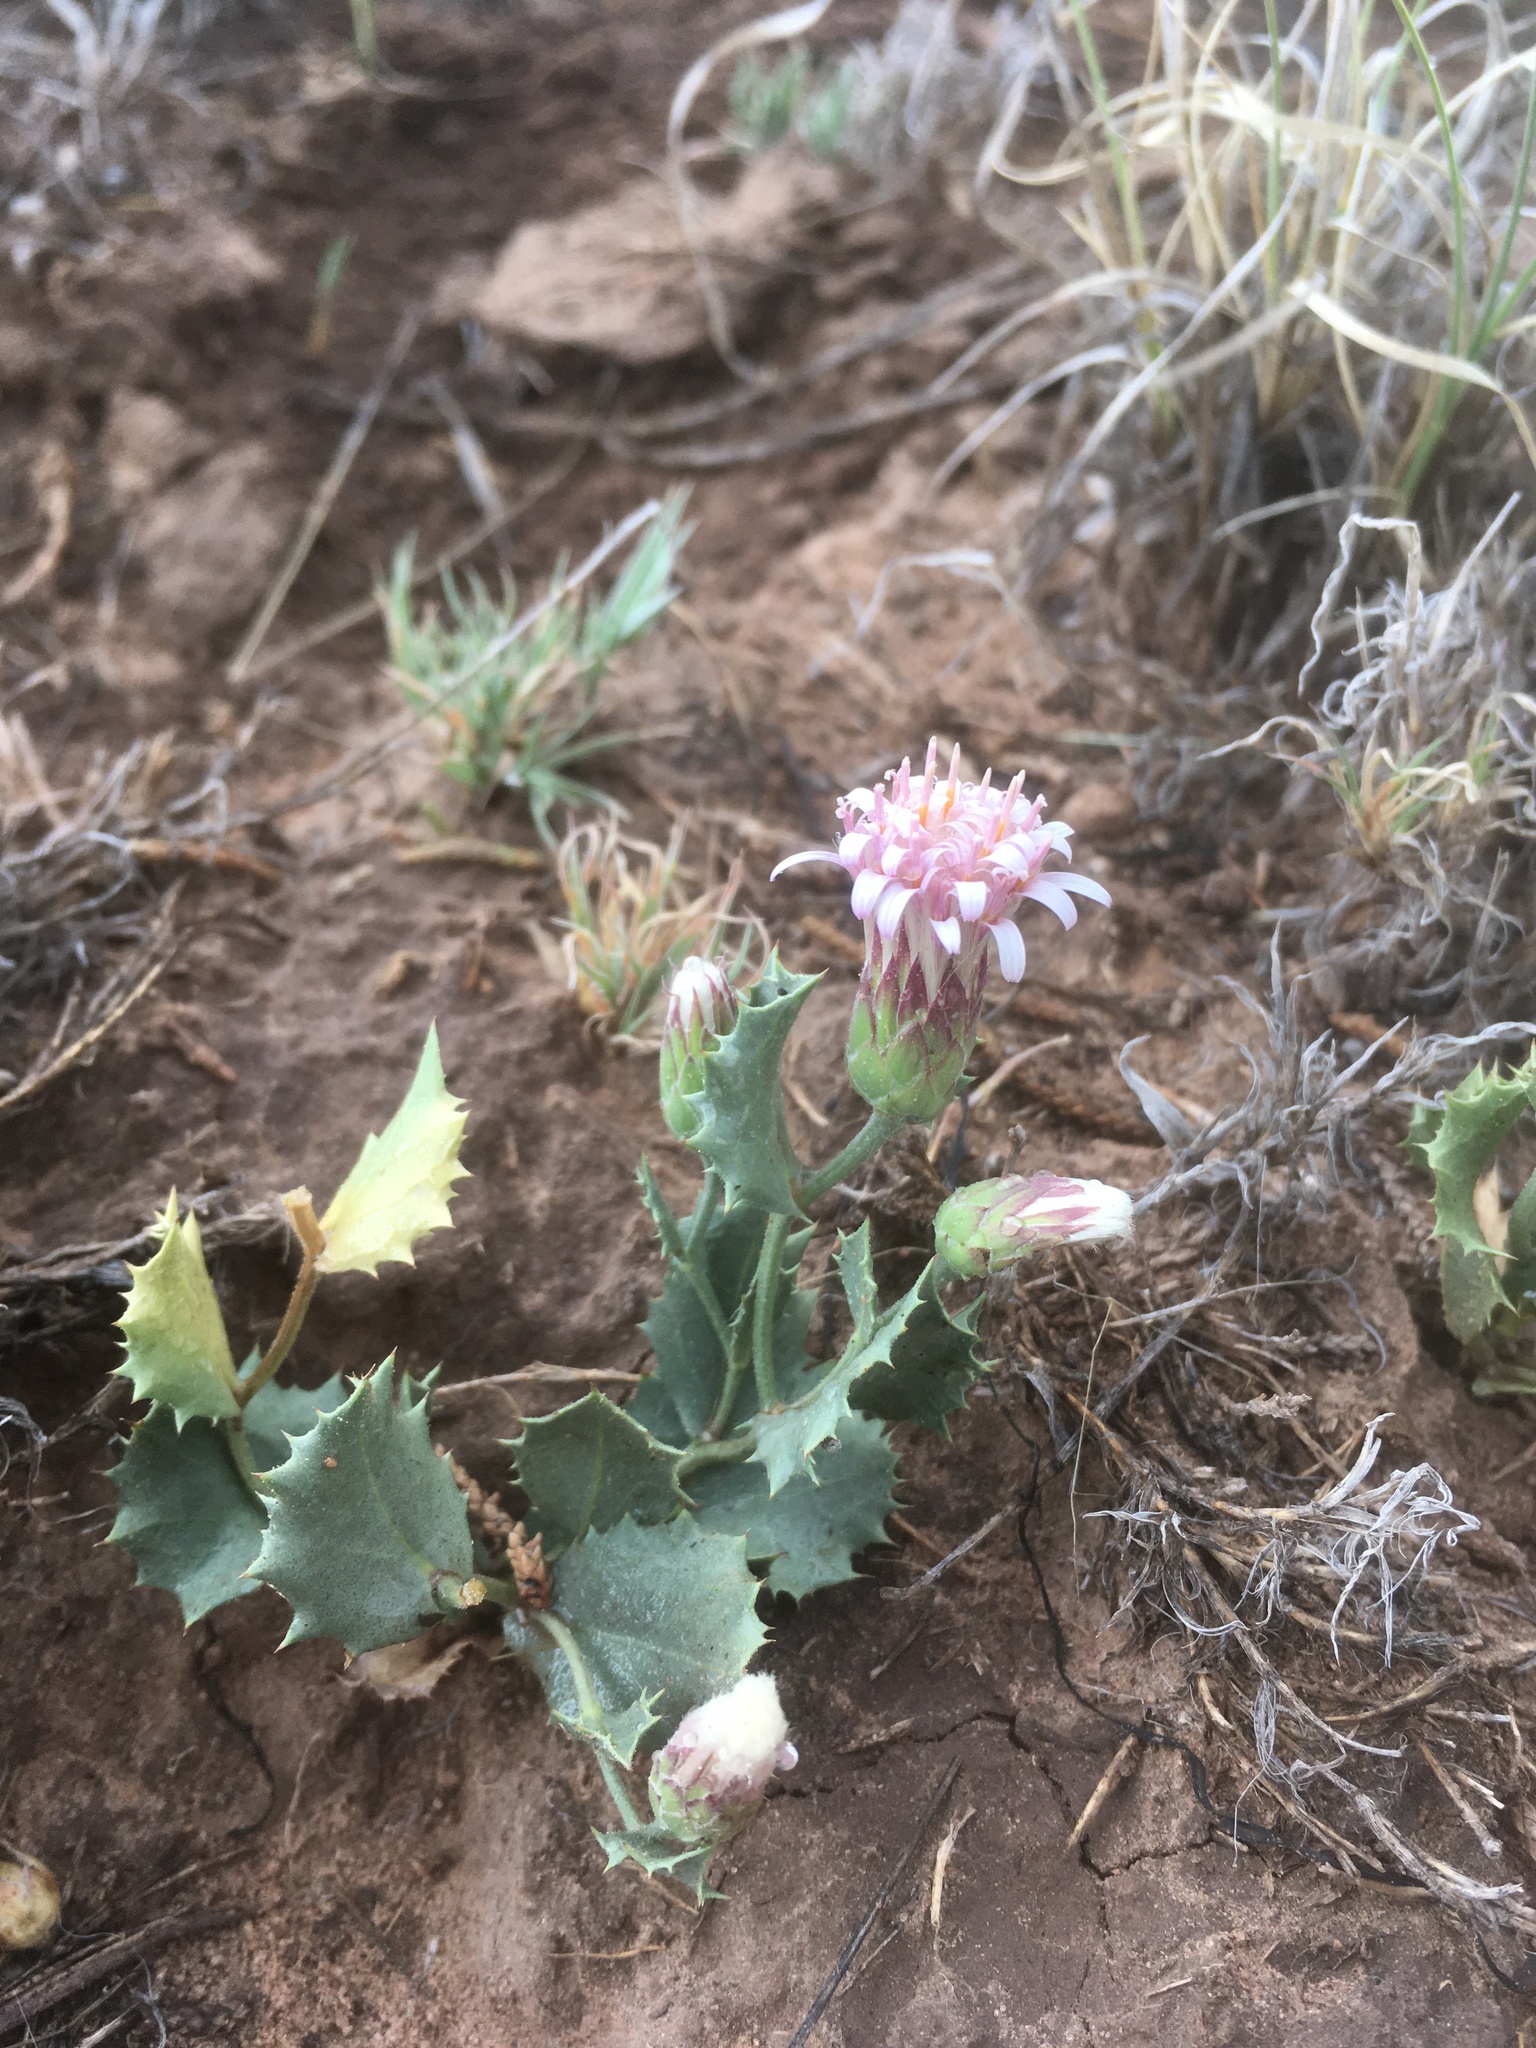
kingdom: Plantae
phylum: Tracheophyta
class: Magnoliopsida
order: Asterales
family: Asteraceae
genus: Acourtia
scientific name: Acourtia nana
